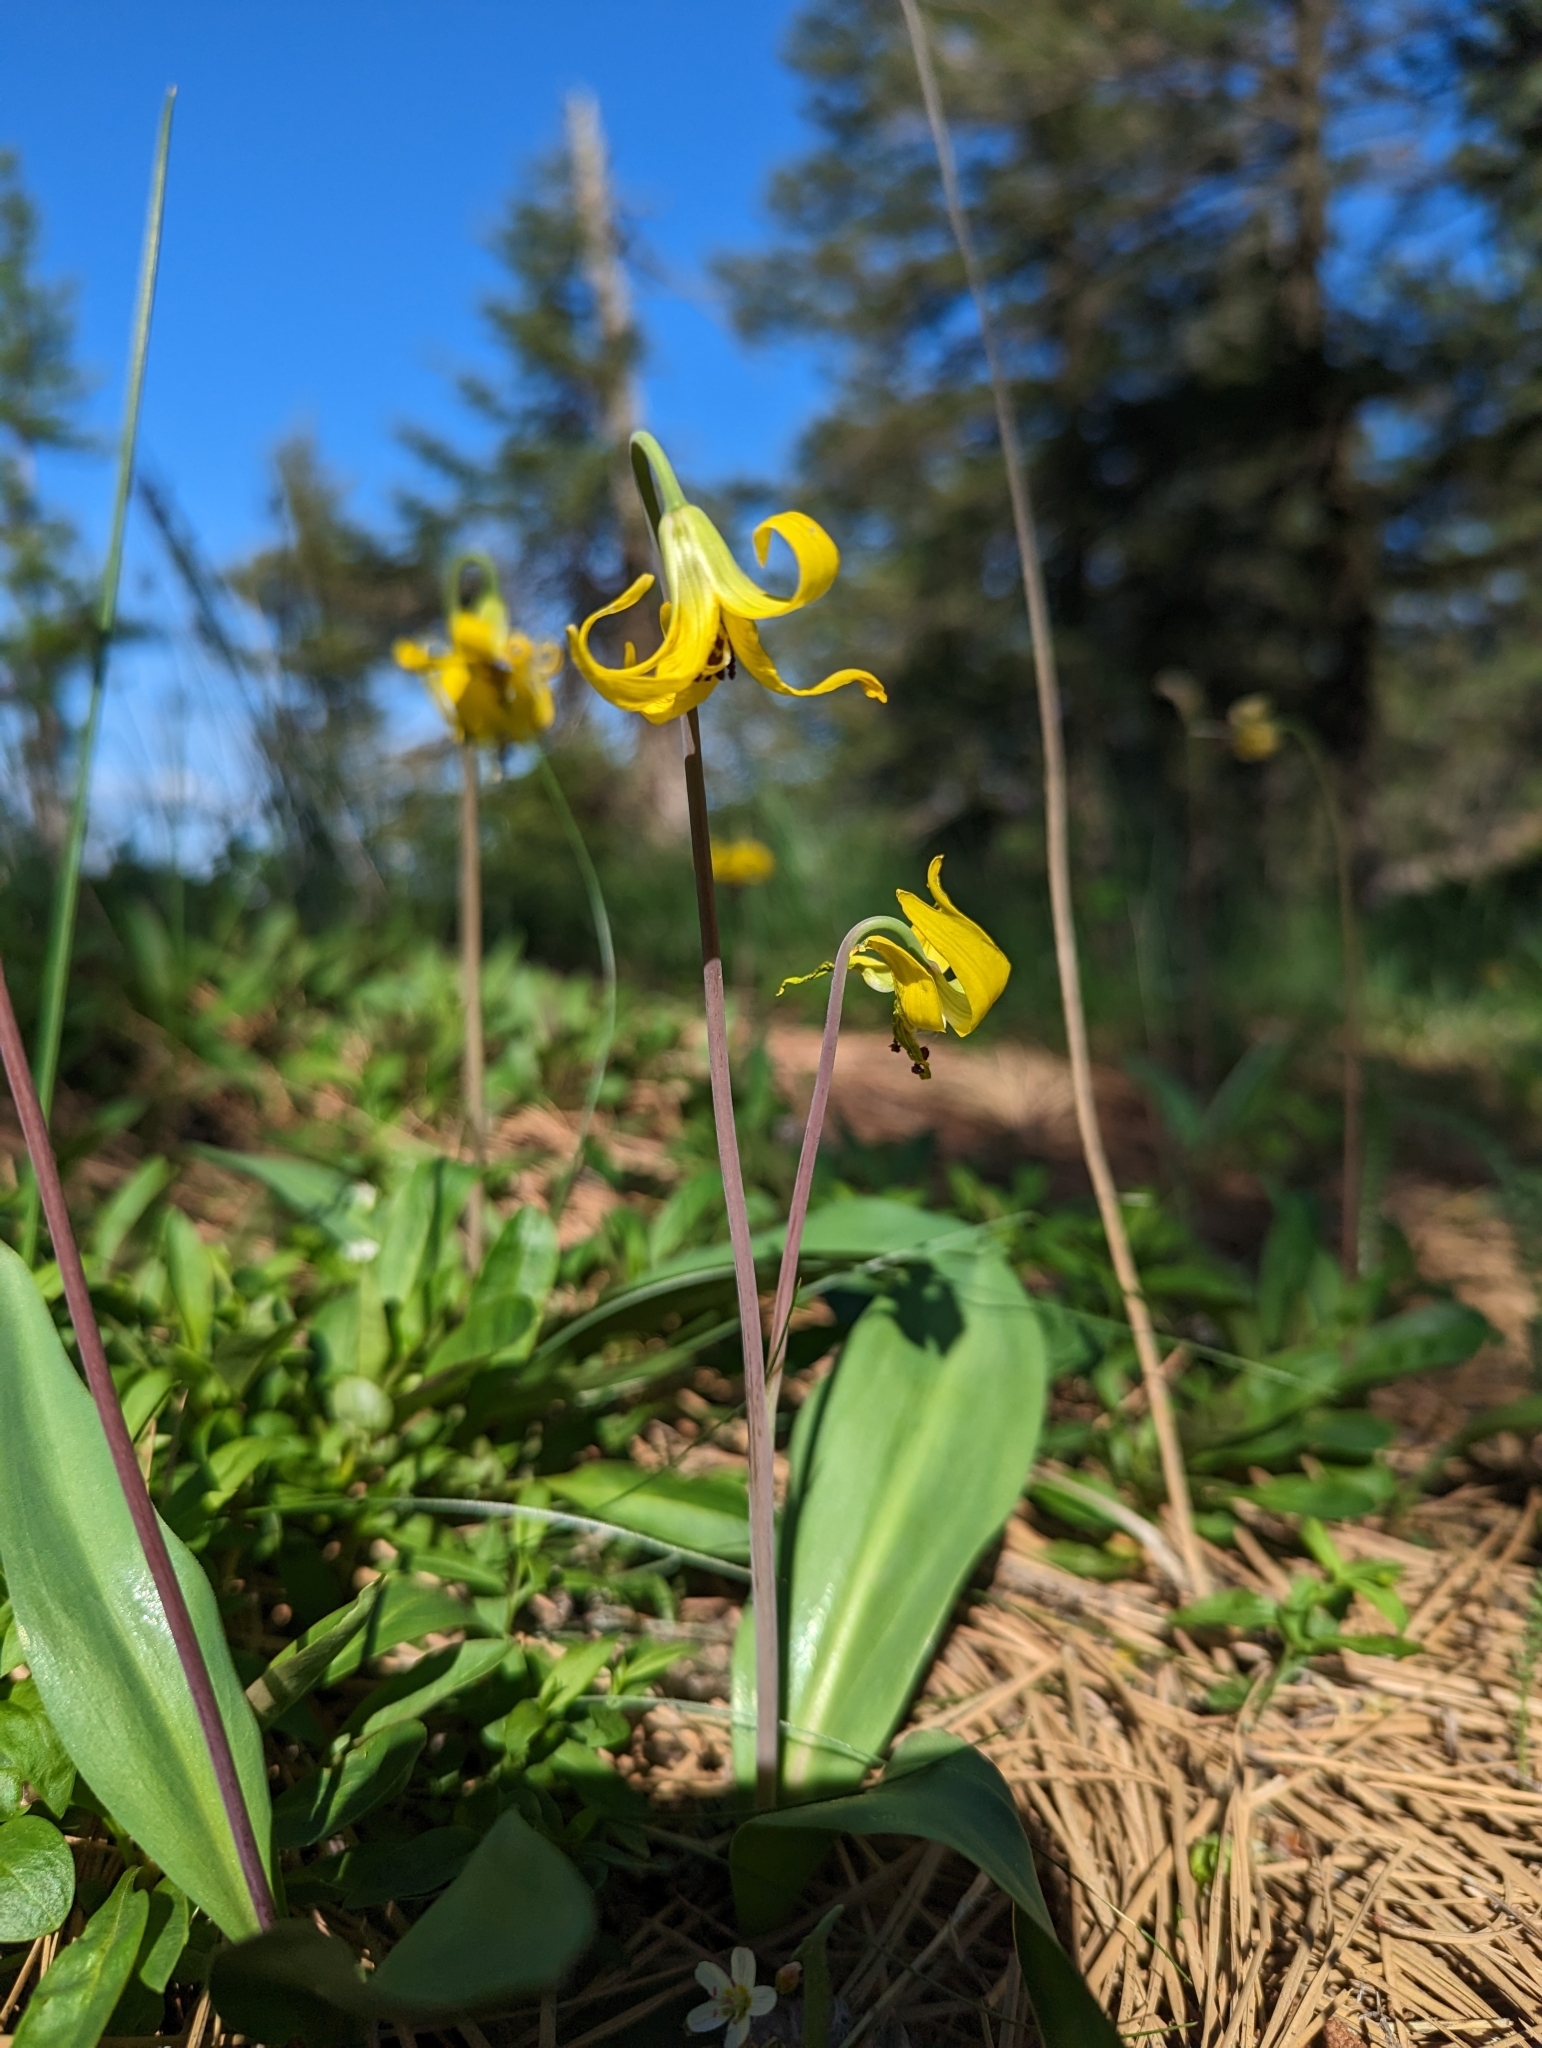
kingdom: Plantae
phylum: Tracheophyta
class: Liliopsida
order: Liliales
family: Liliaceae
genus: Erythronium
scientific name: Erythronium grandiflorum
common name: Avalanche-lily
